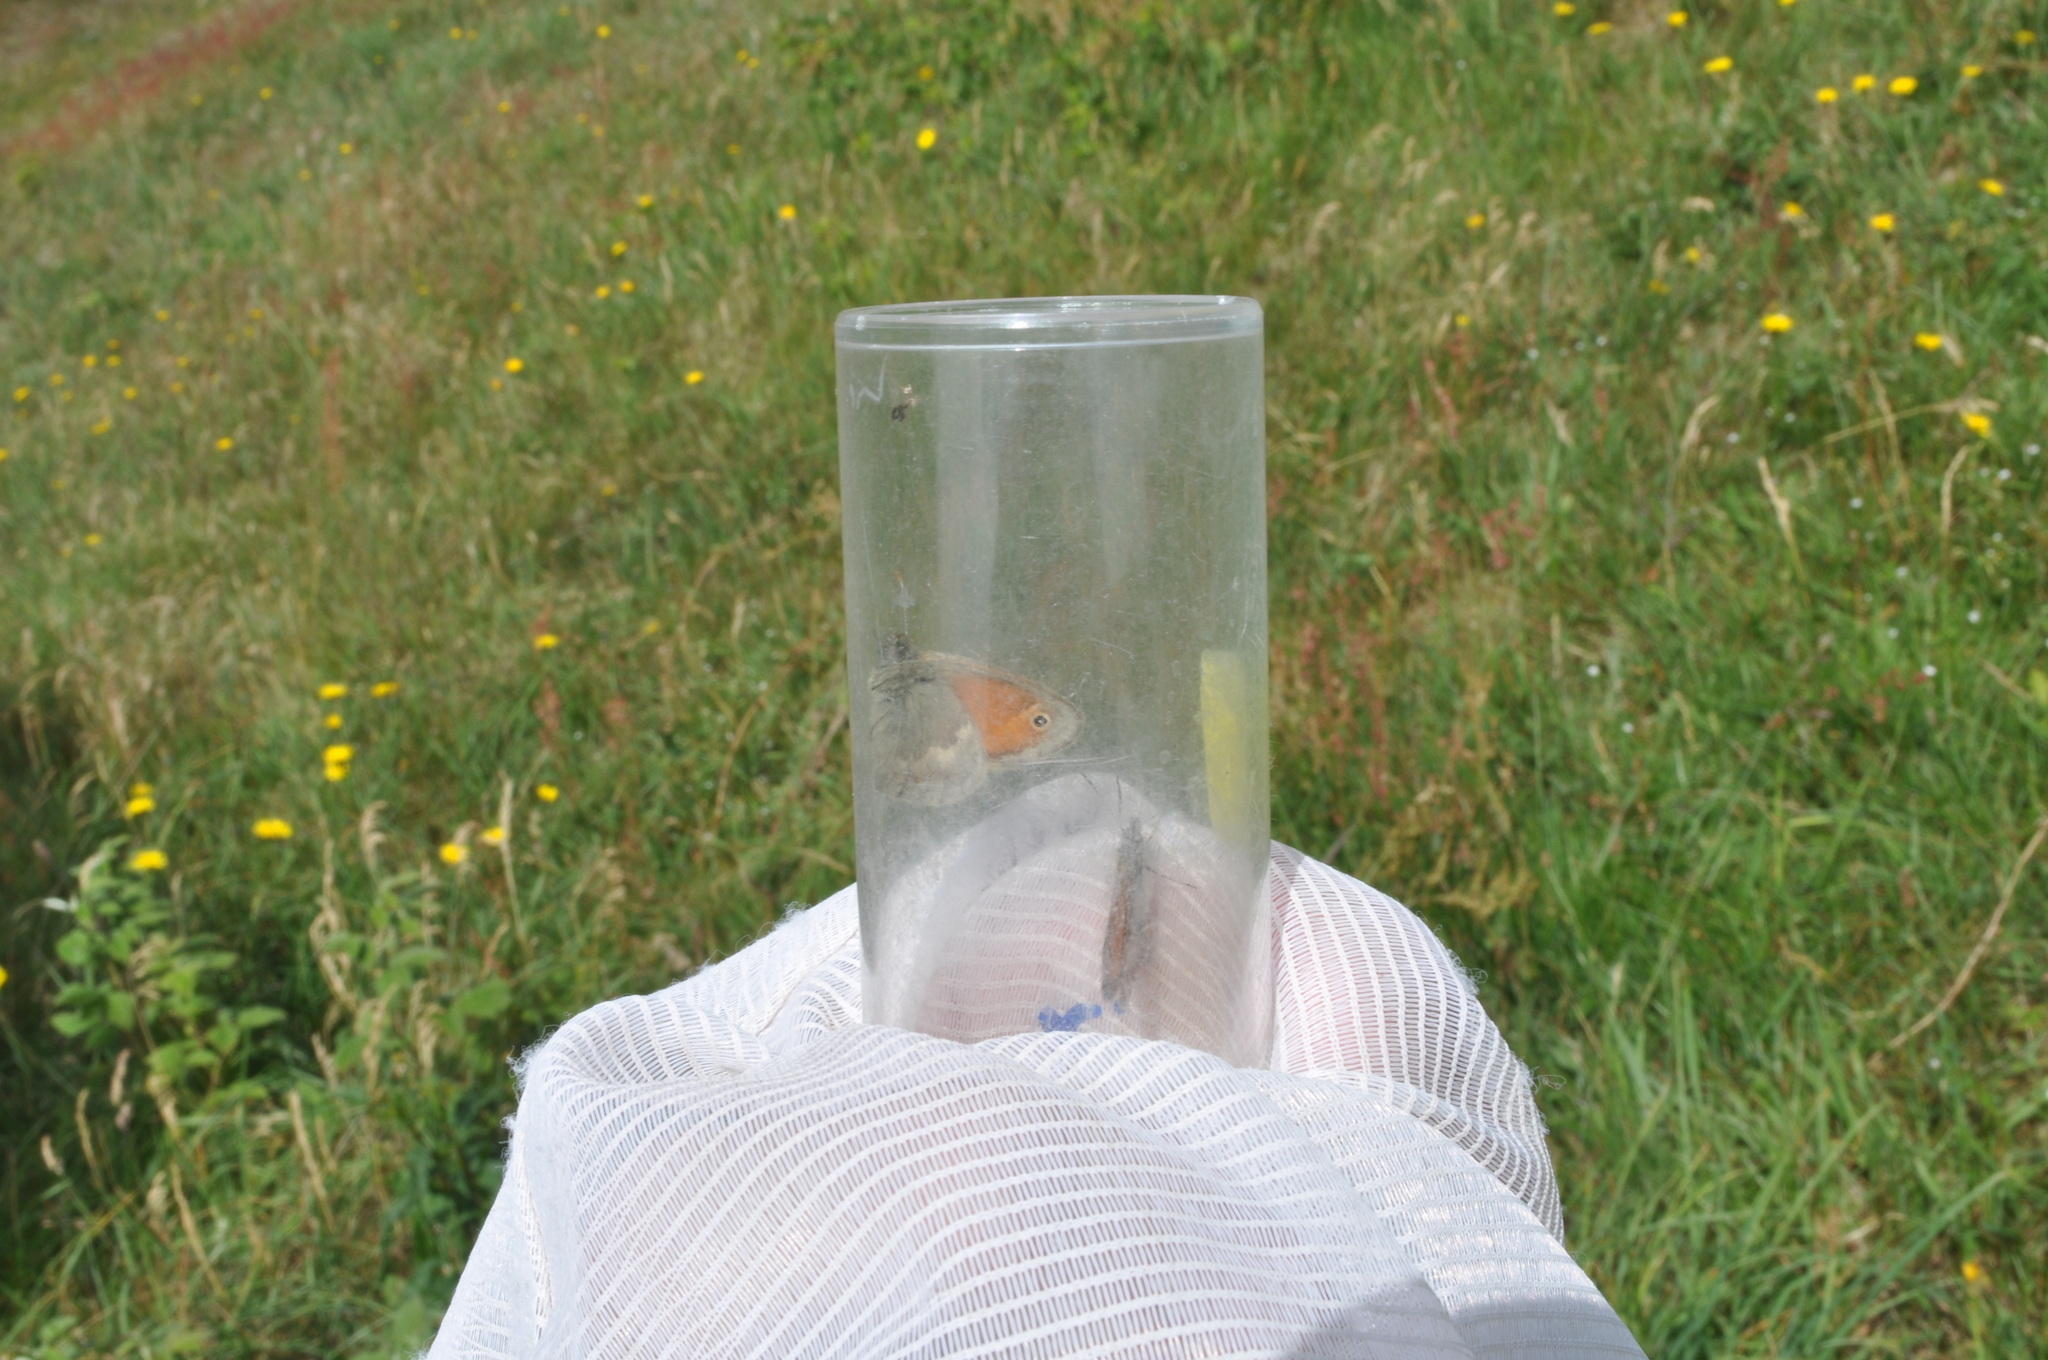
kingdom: Animalia
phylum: Arthropoda
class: Insecta
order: Lepidoptera
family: Nymphalidae
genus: Coenonympha
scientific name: Coenonympha pamphilus
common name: Small heath
